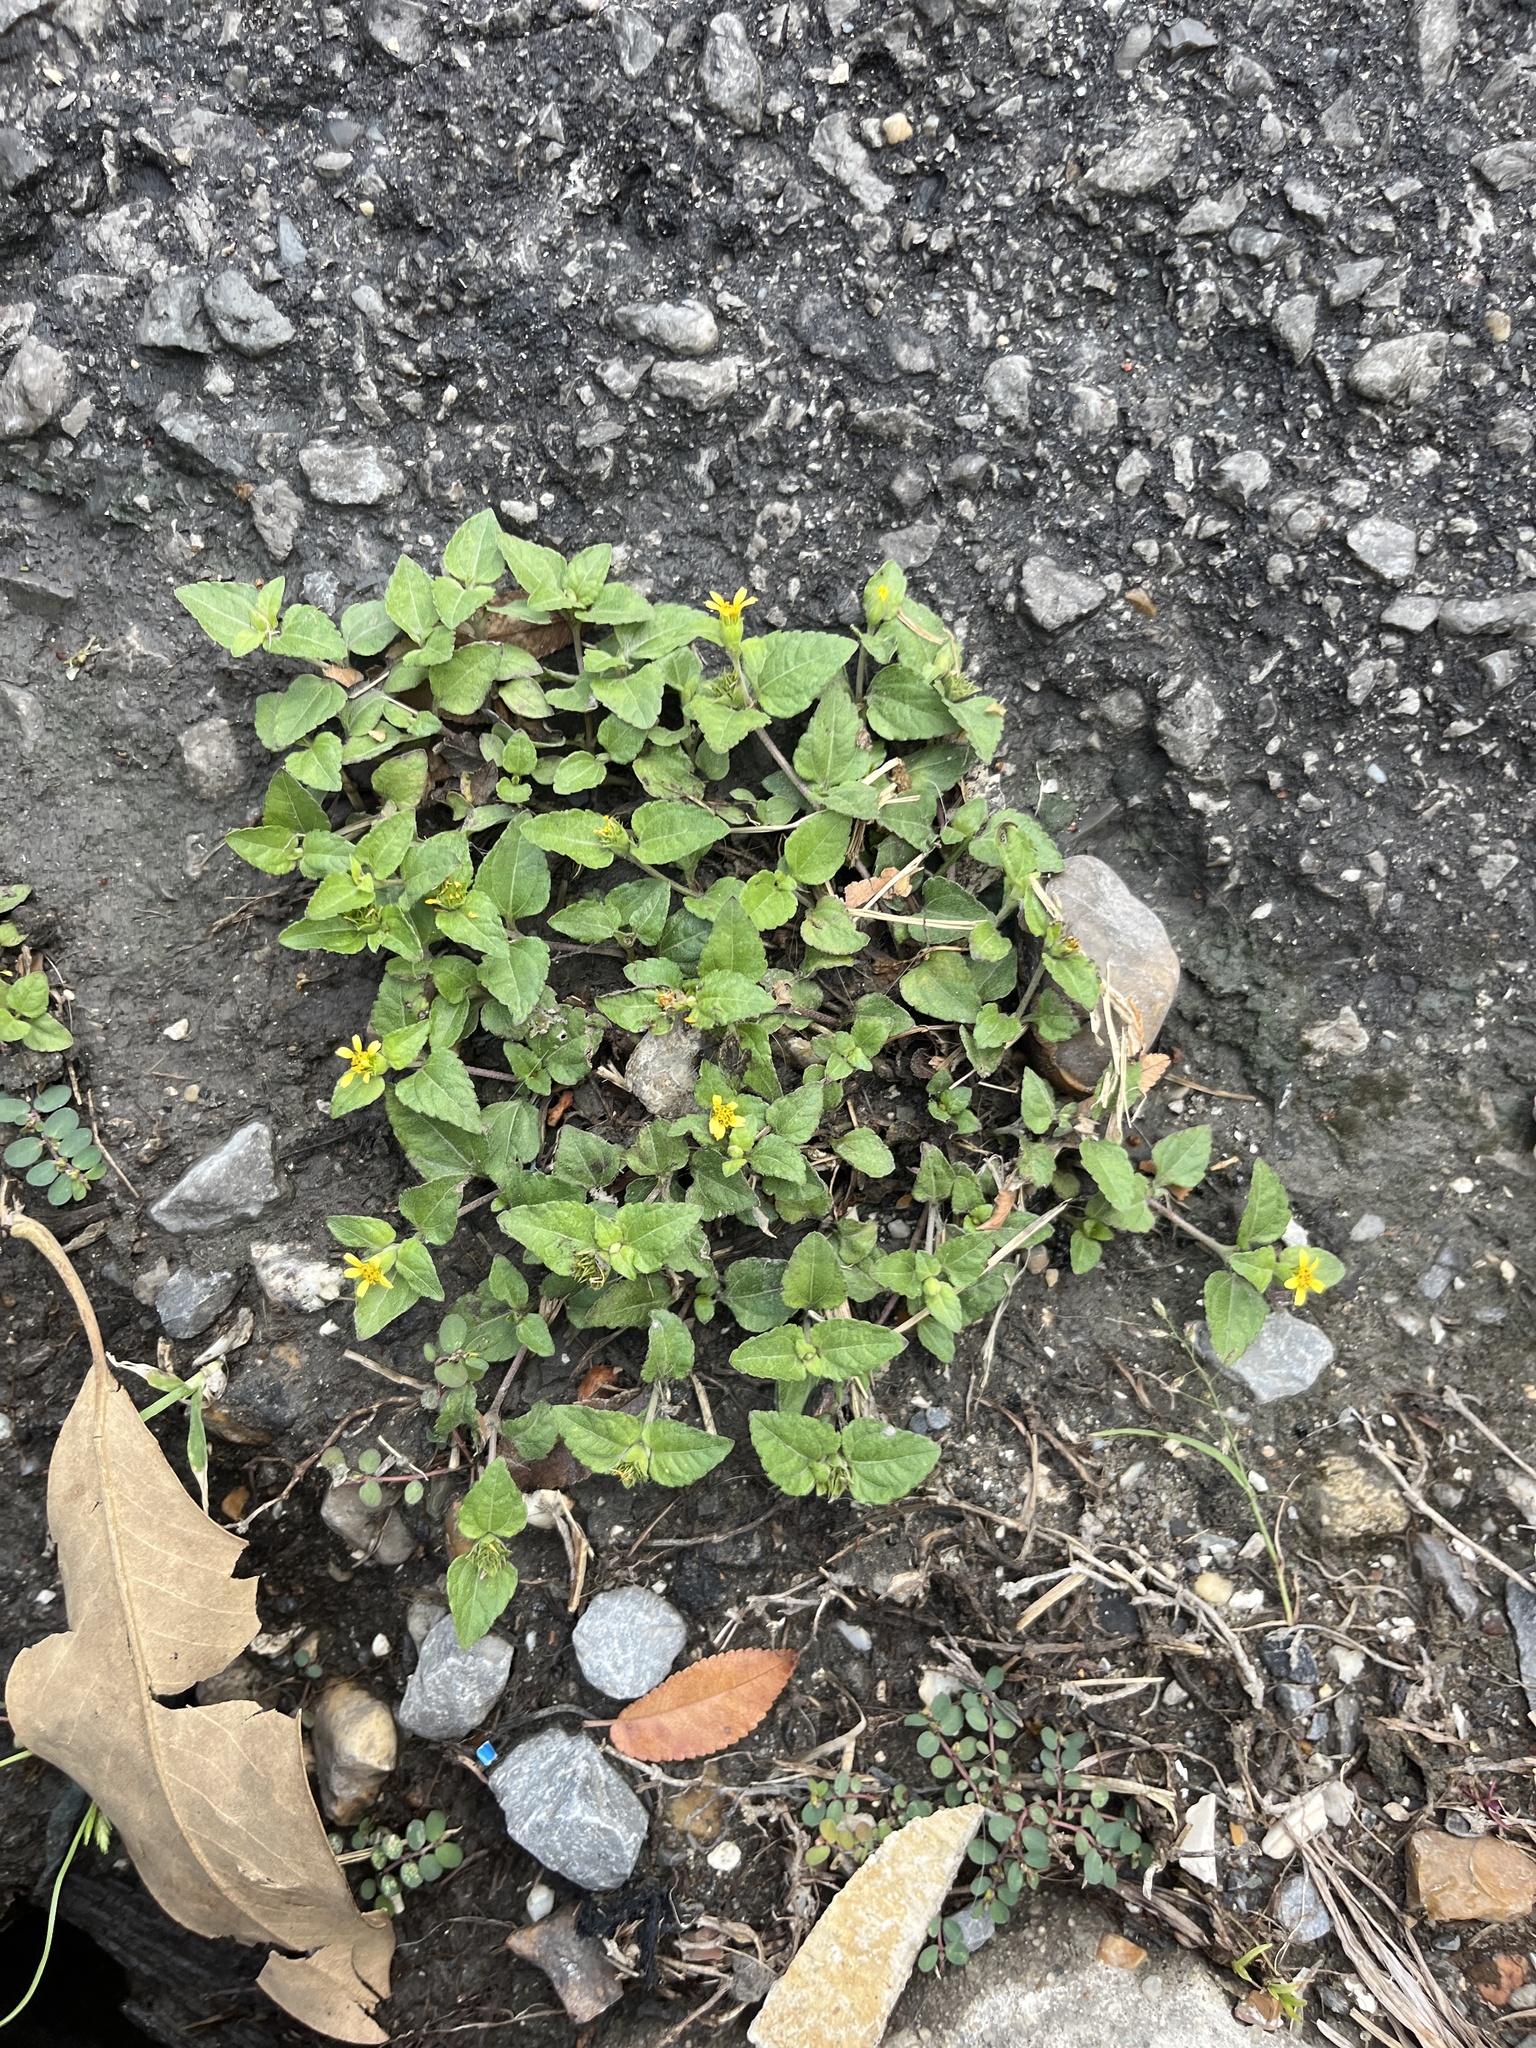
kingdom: Plantae
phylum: Tracheophyta
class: Magnoliopsida
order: Asterales
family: Asteraceae
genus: Calyptocarpus
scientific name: Calyptocarpus vialis
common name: Straggler daisy
